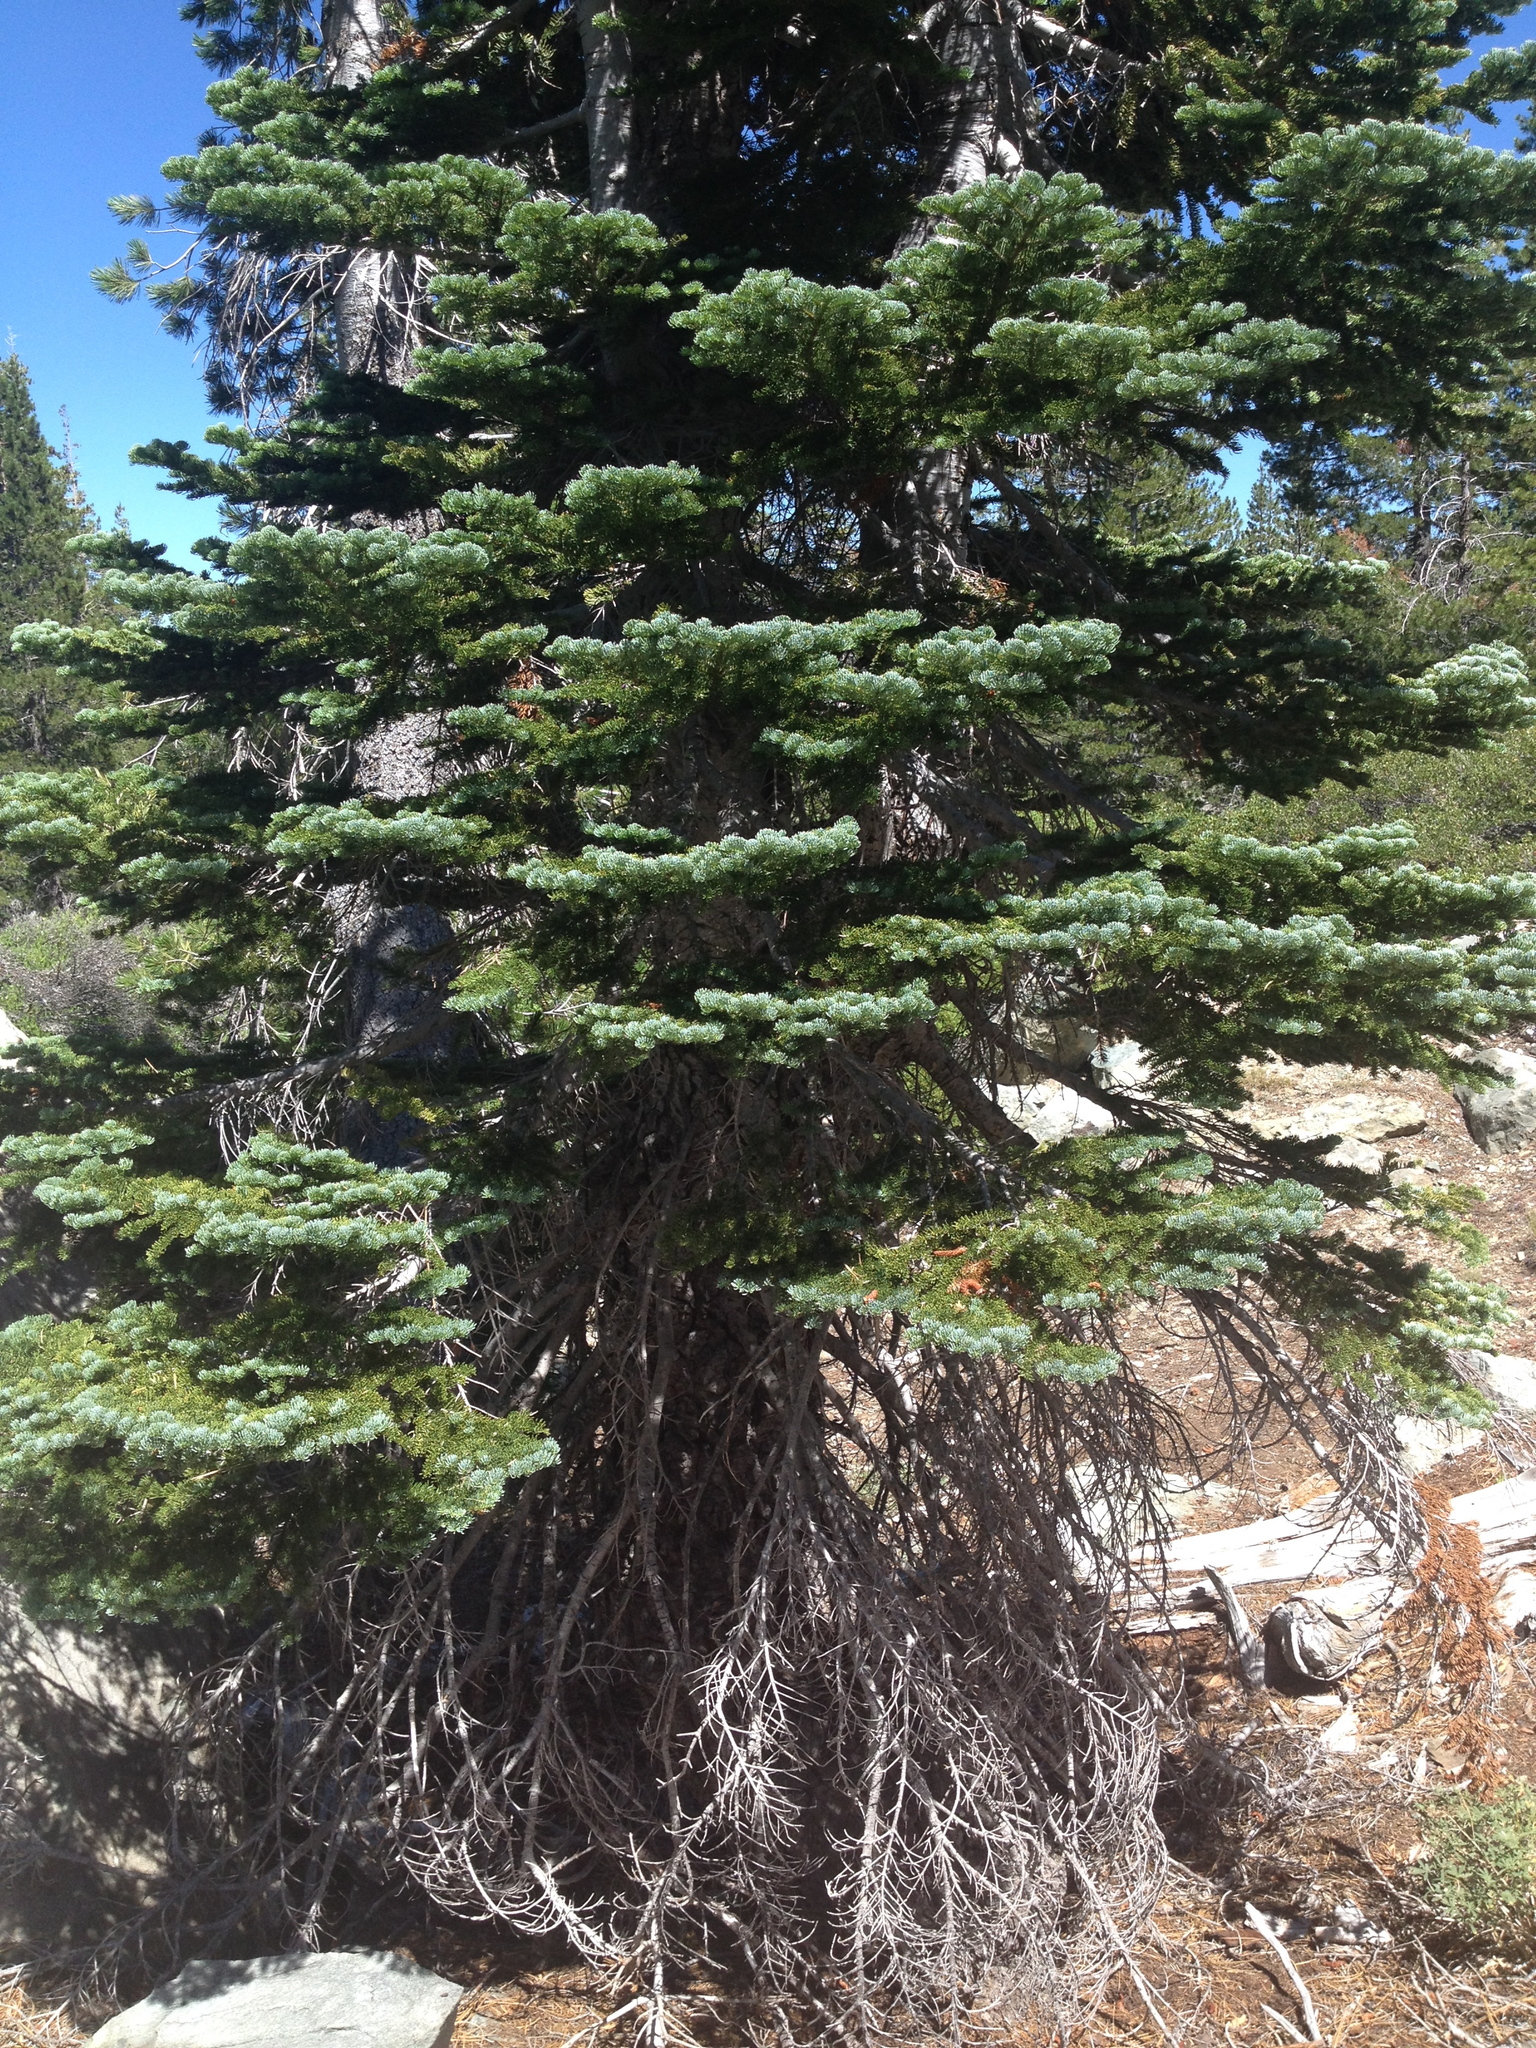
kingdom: Plantae
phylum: Tracheophyta
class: Pinopsida
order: Pinales
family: Pinaceae
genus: Abies
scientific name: Abies magnifica bis
